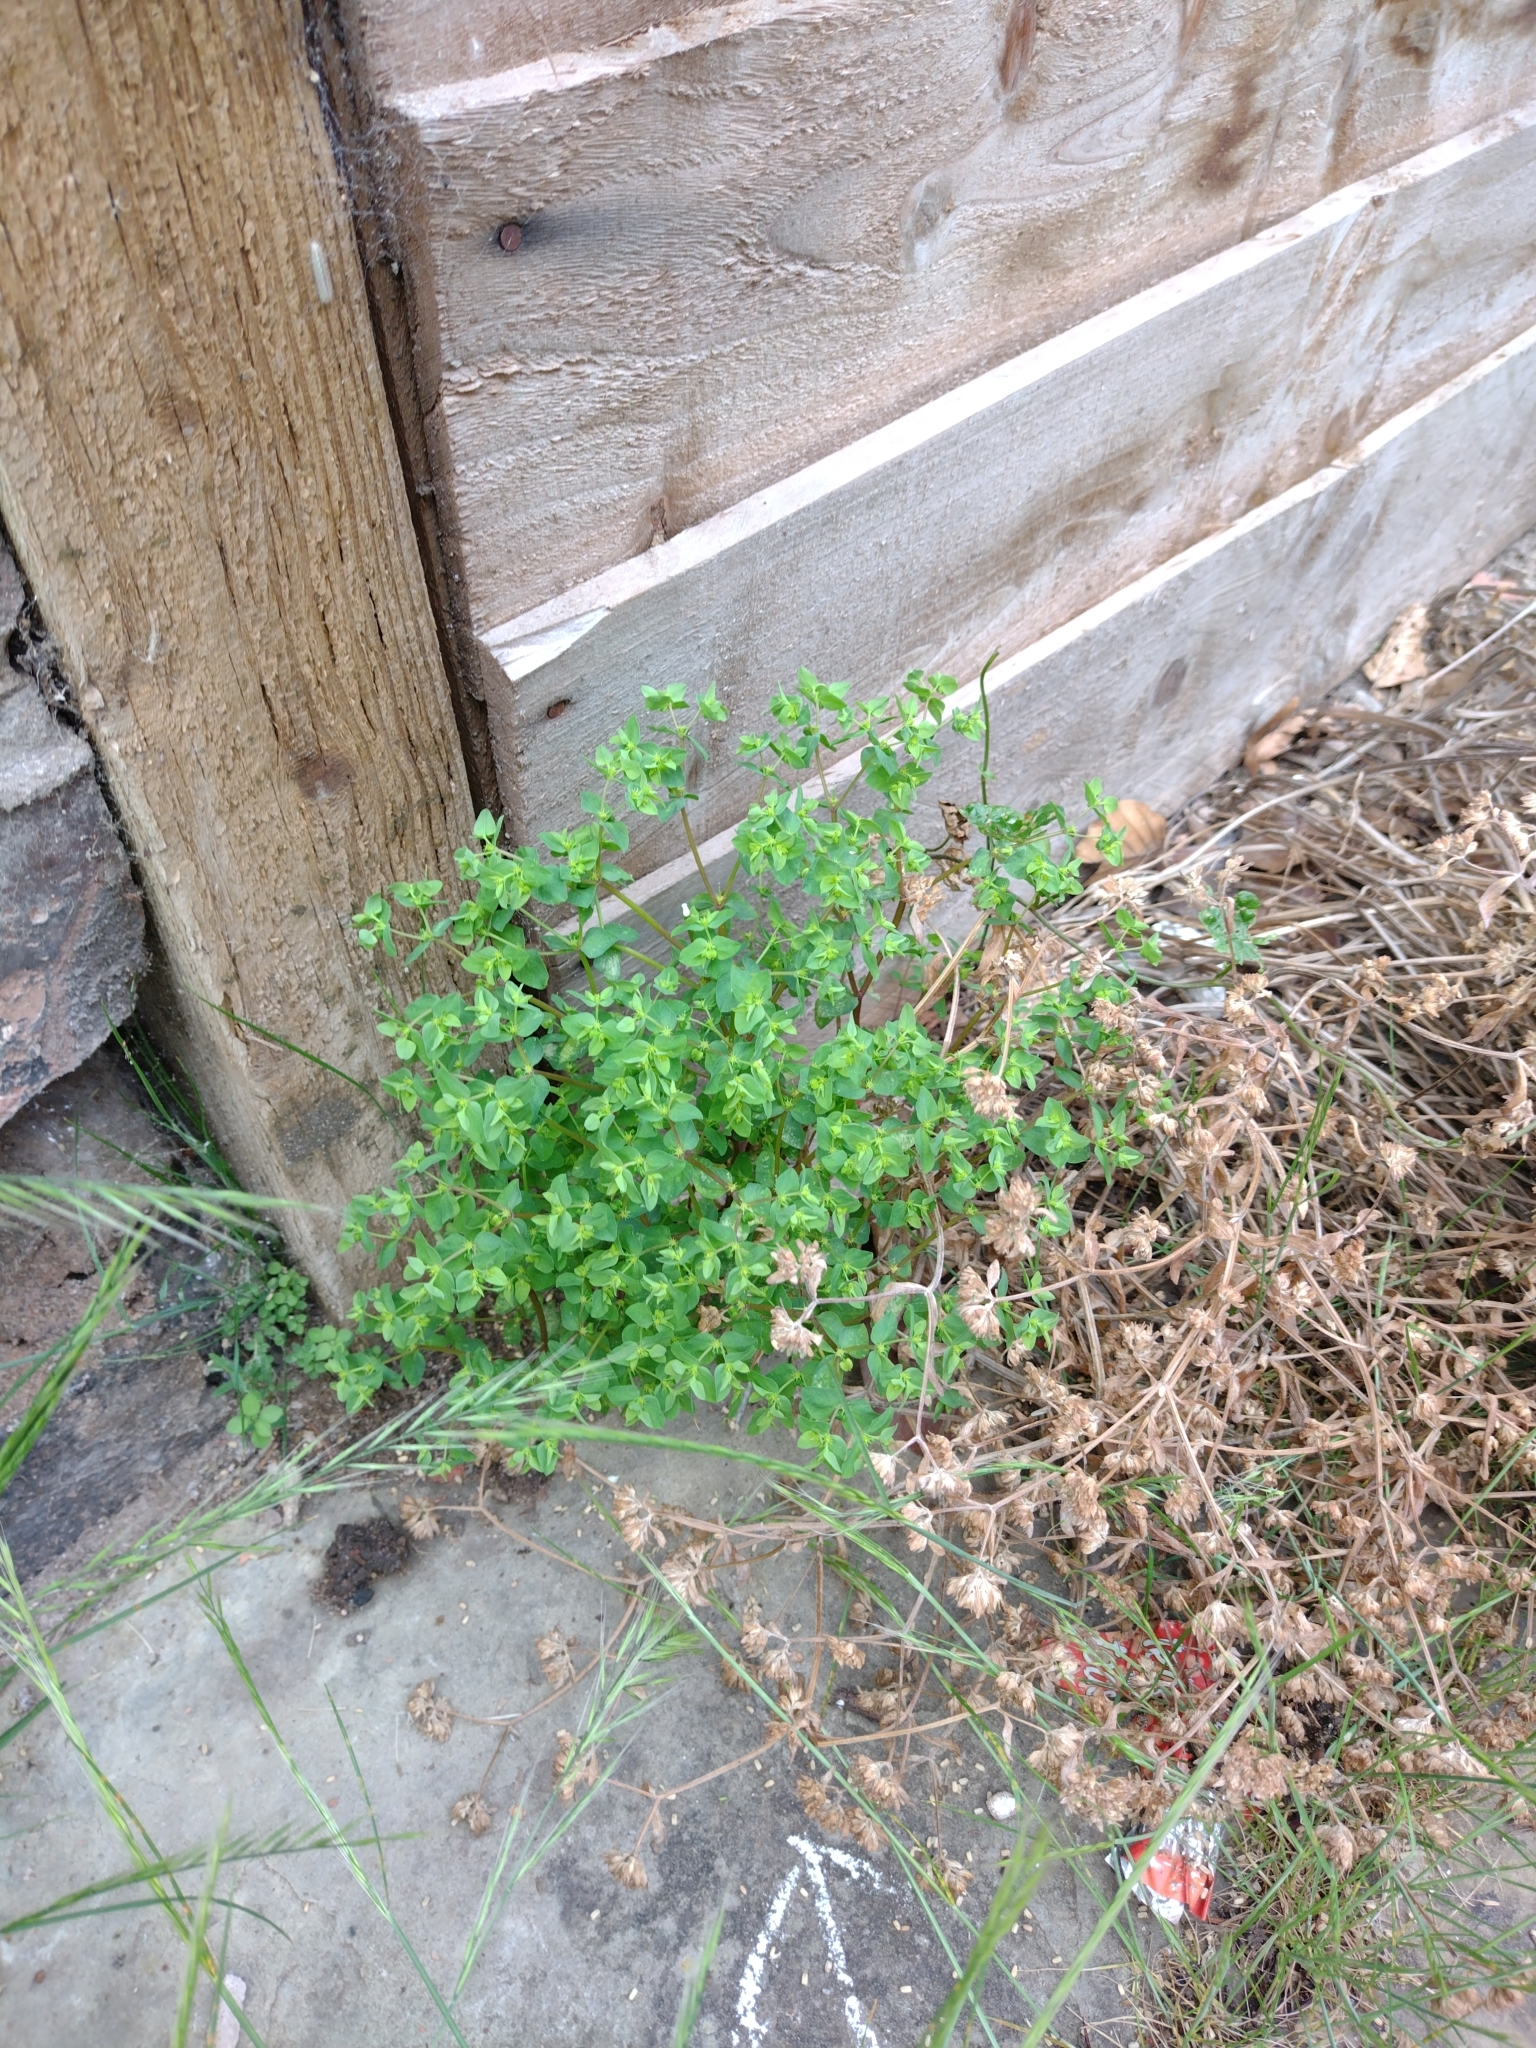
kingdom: Plantae
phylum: Tracheophyta
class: Magnoliopsida
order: Malpighiales
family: Euphorbiaceae
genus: Euphorbia
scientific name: Euphorbia peplus
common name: Petty spurge
